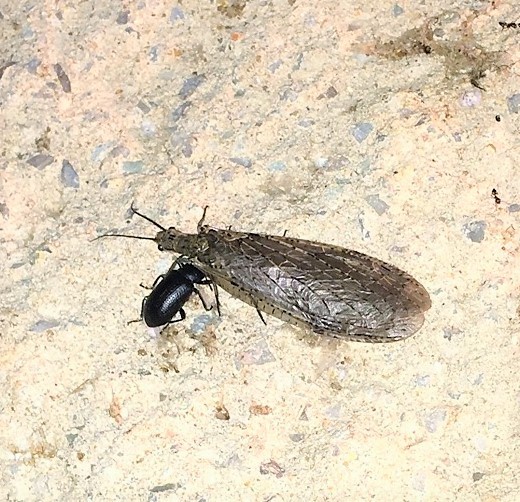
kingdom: Animalia
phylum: Arthropoda
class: Insecta
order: Megaloptera
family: Corydalidae
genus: Chauliodes
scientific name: Chauliodes rastricornis
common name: Spring fishfly
